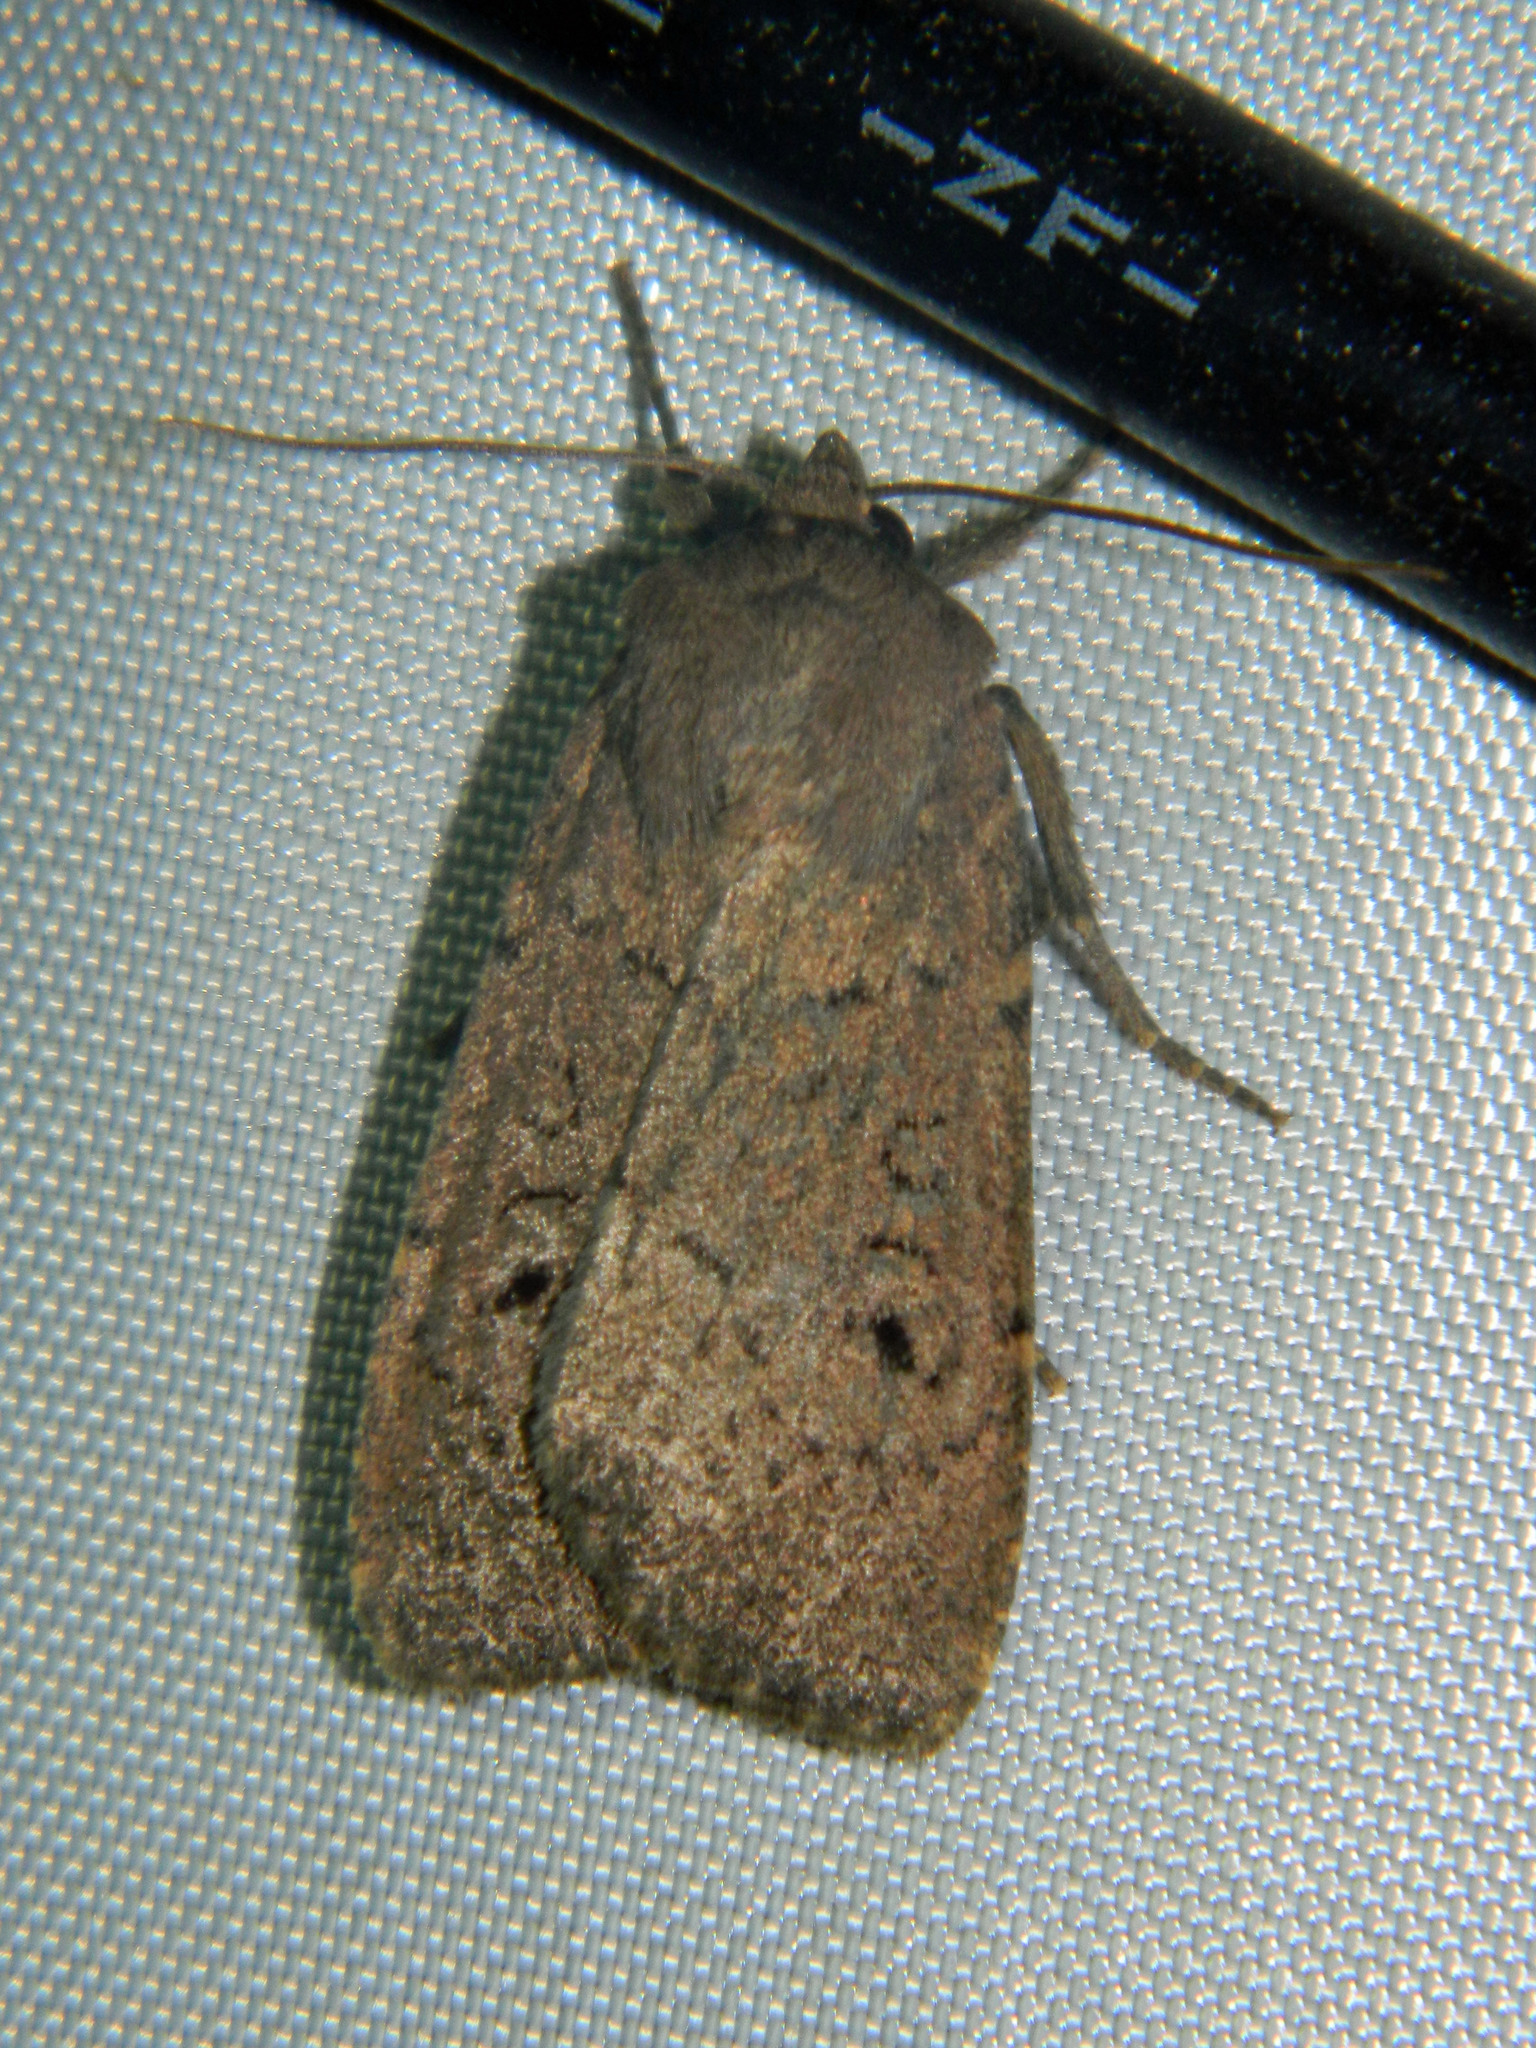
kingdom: Animalia
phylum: Arthropoda
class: Insecta
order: Lepidoptera
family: Noctuidae
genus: Graphiphora
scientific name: Graphiphora augur
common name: Double dart
